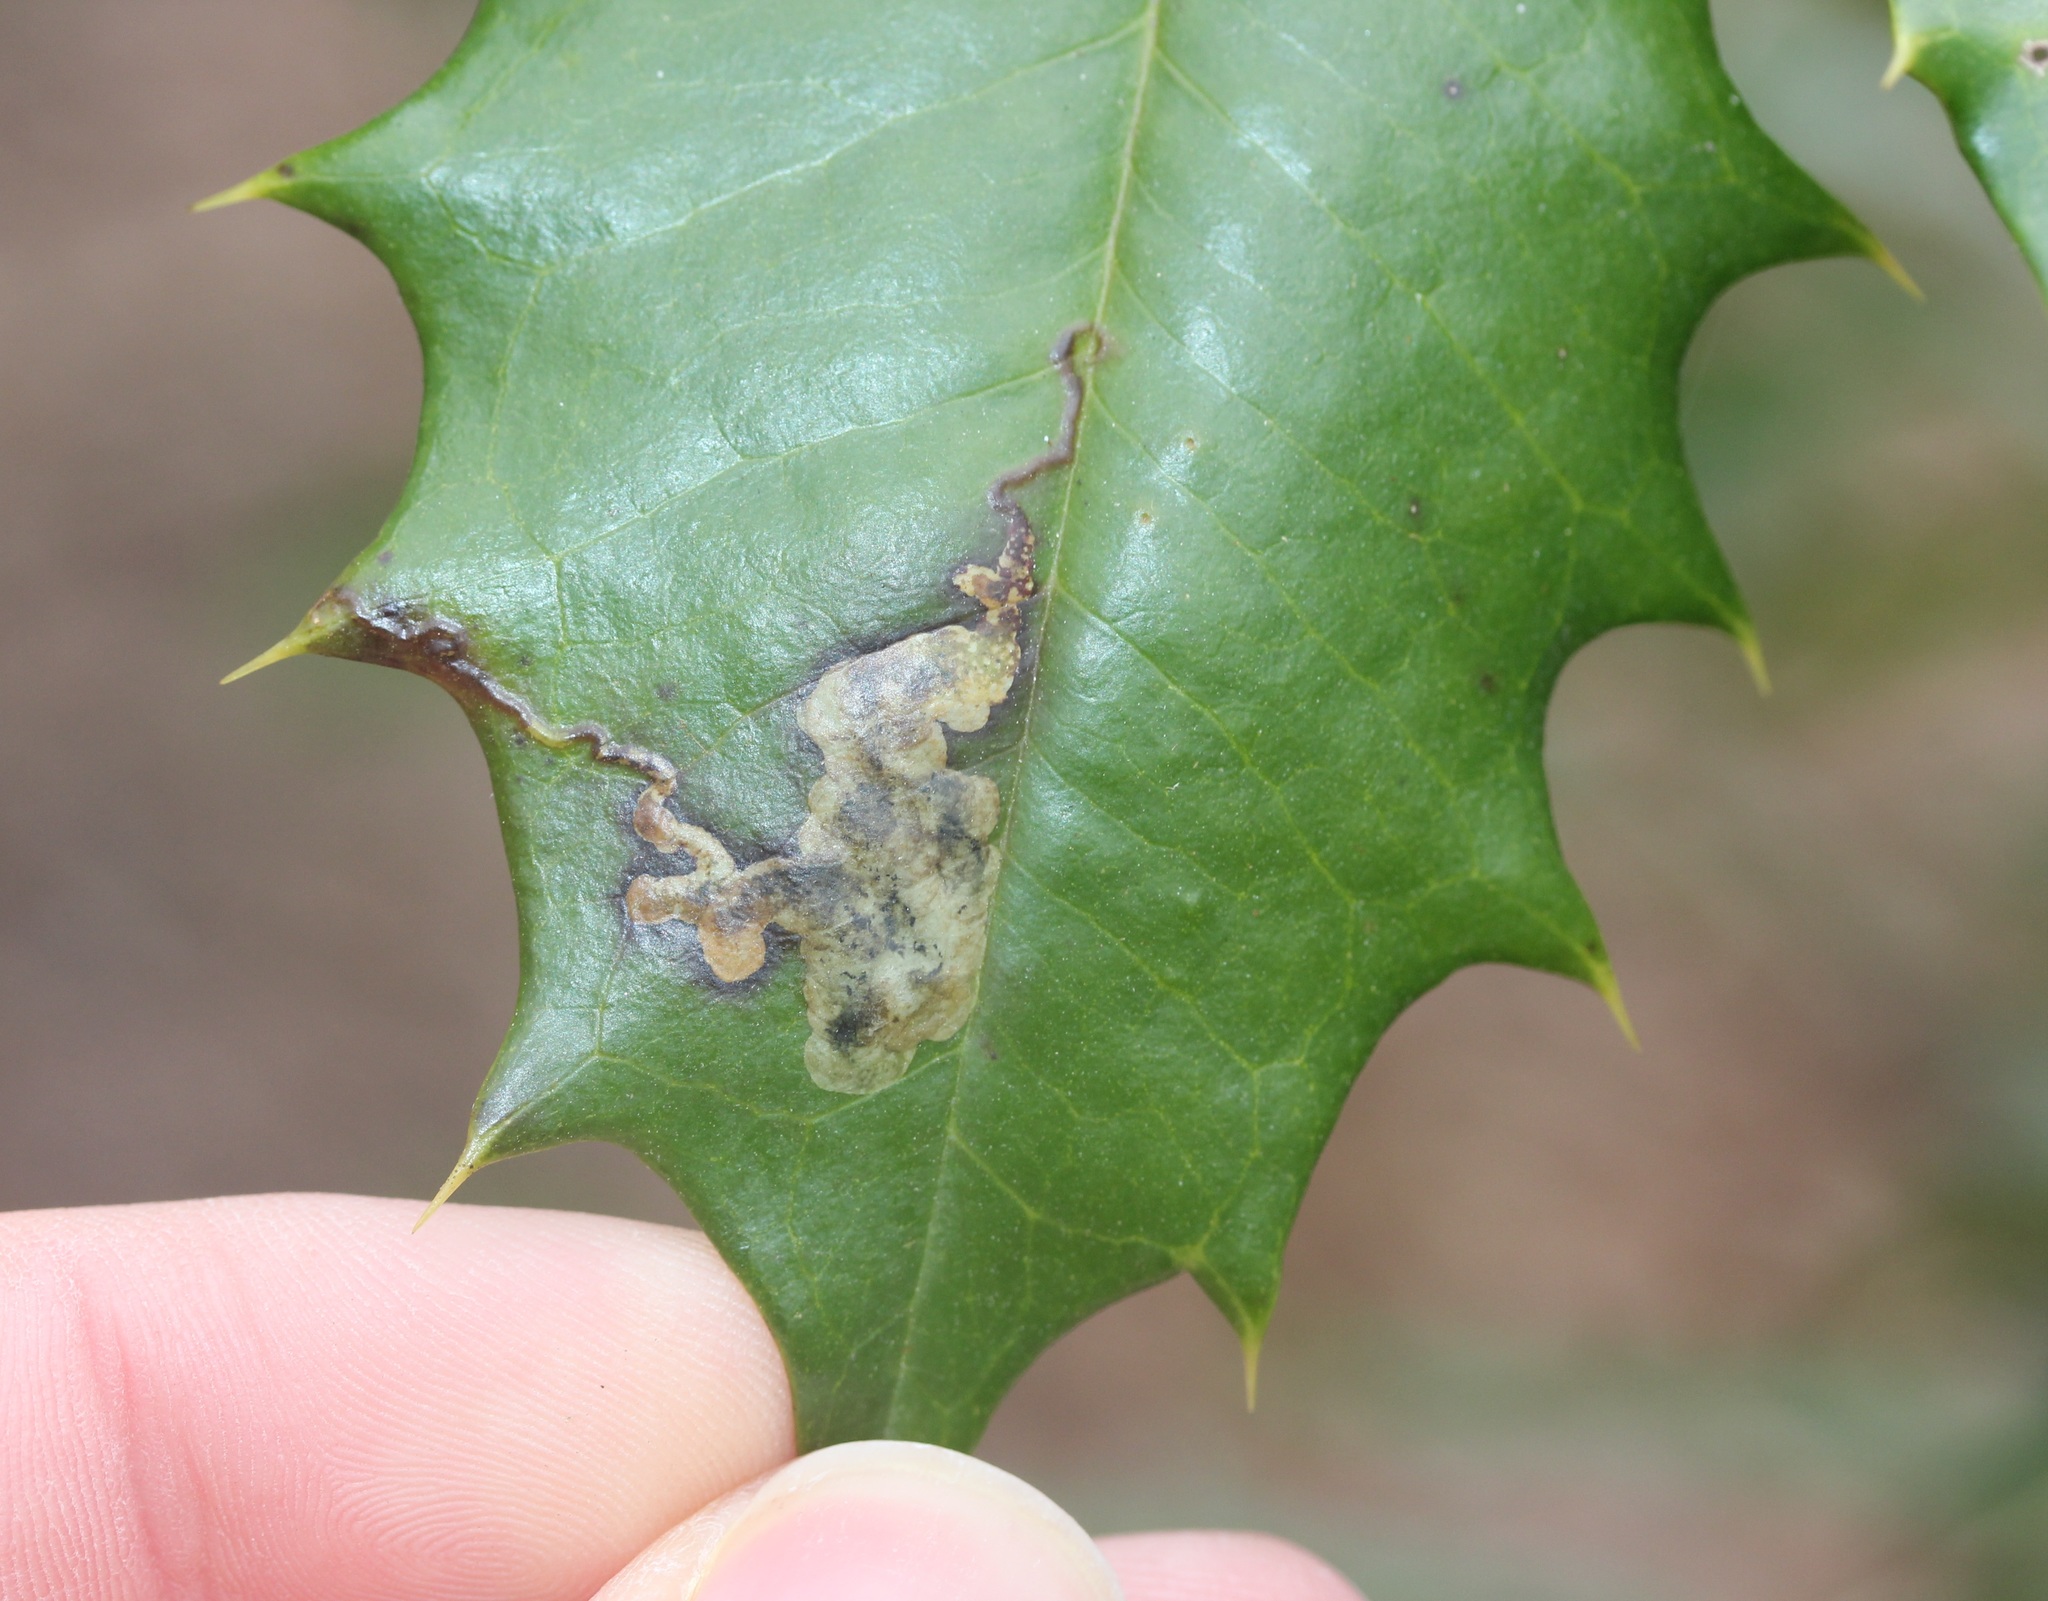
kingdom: Animalia
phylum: Arthropoda
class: Insecta
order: Diptera
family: Agromyzidae
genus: Phytomyza
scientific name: Phytomyza ilicicola
